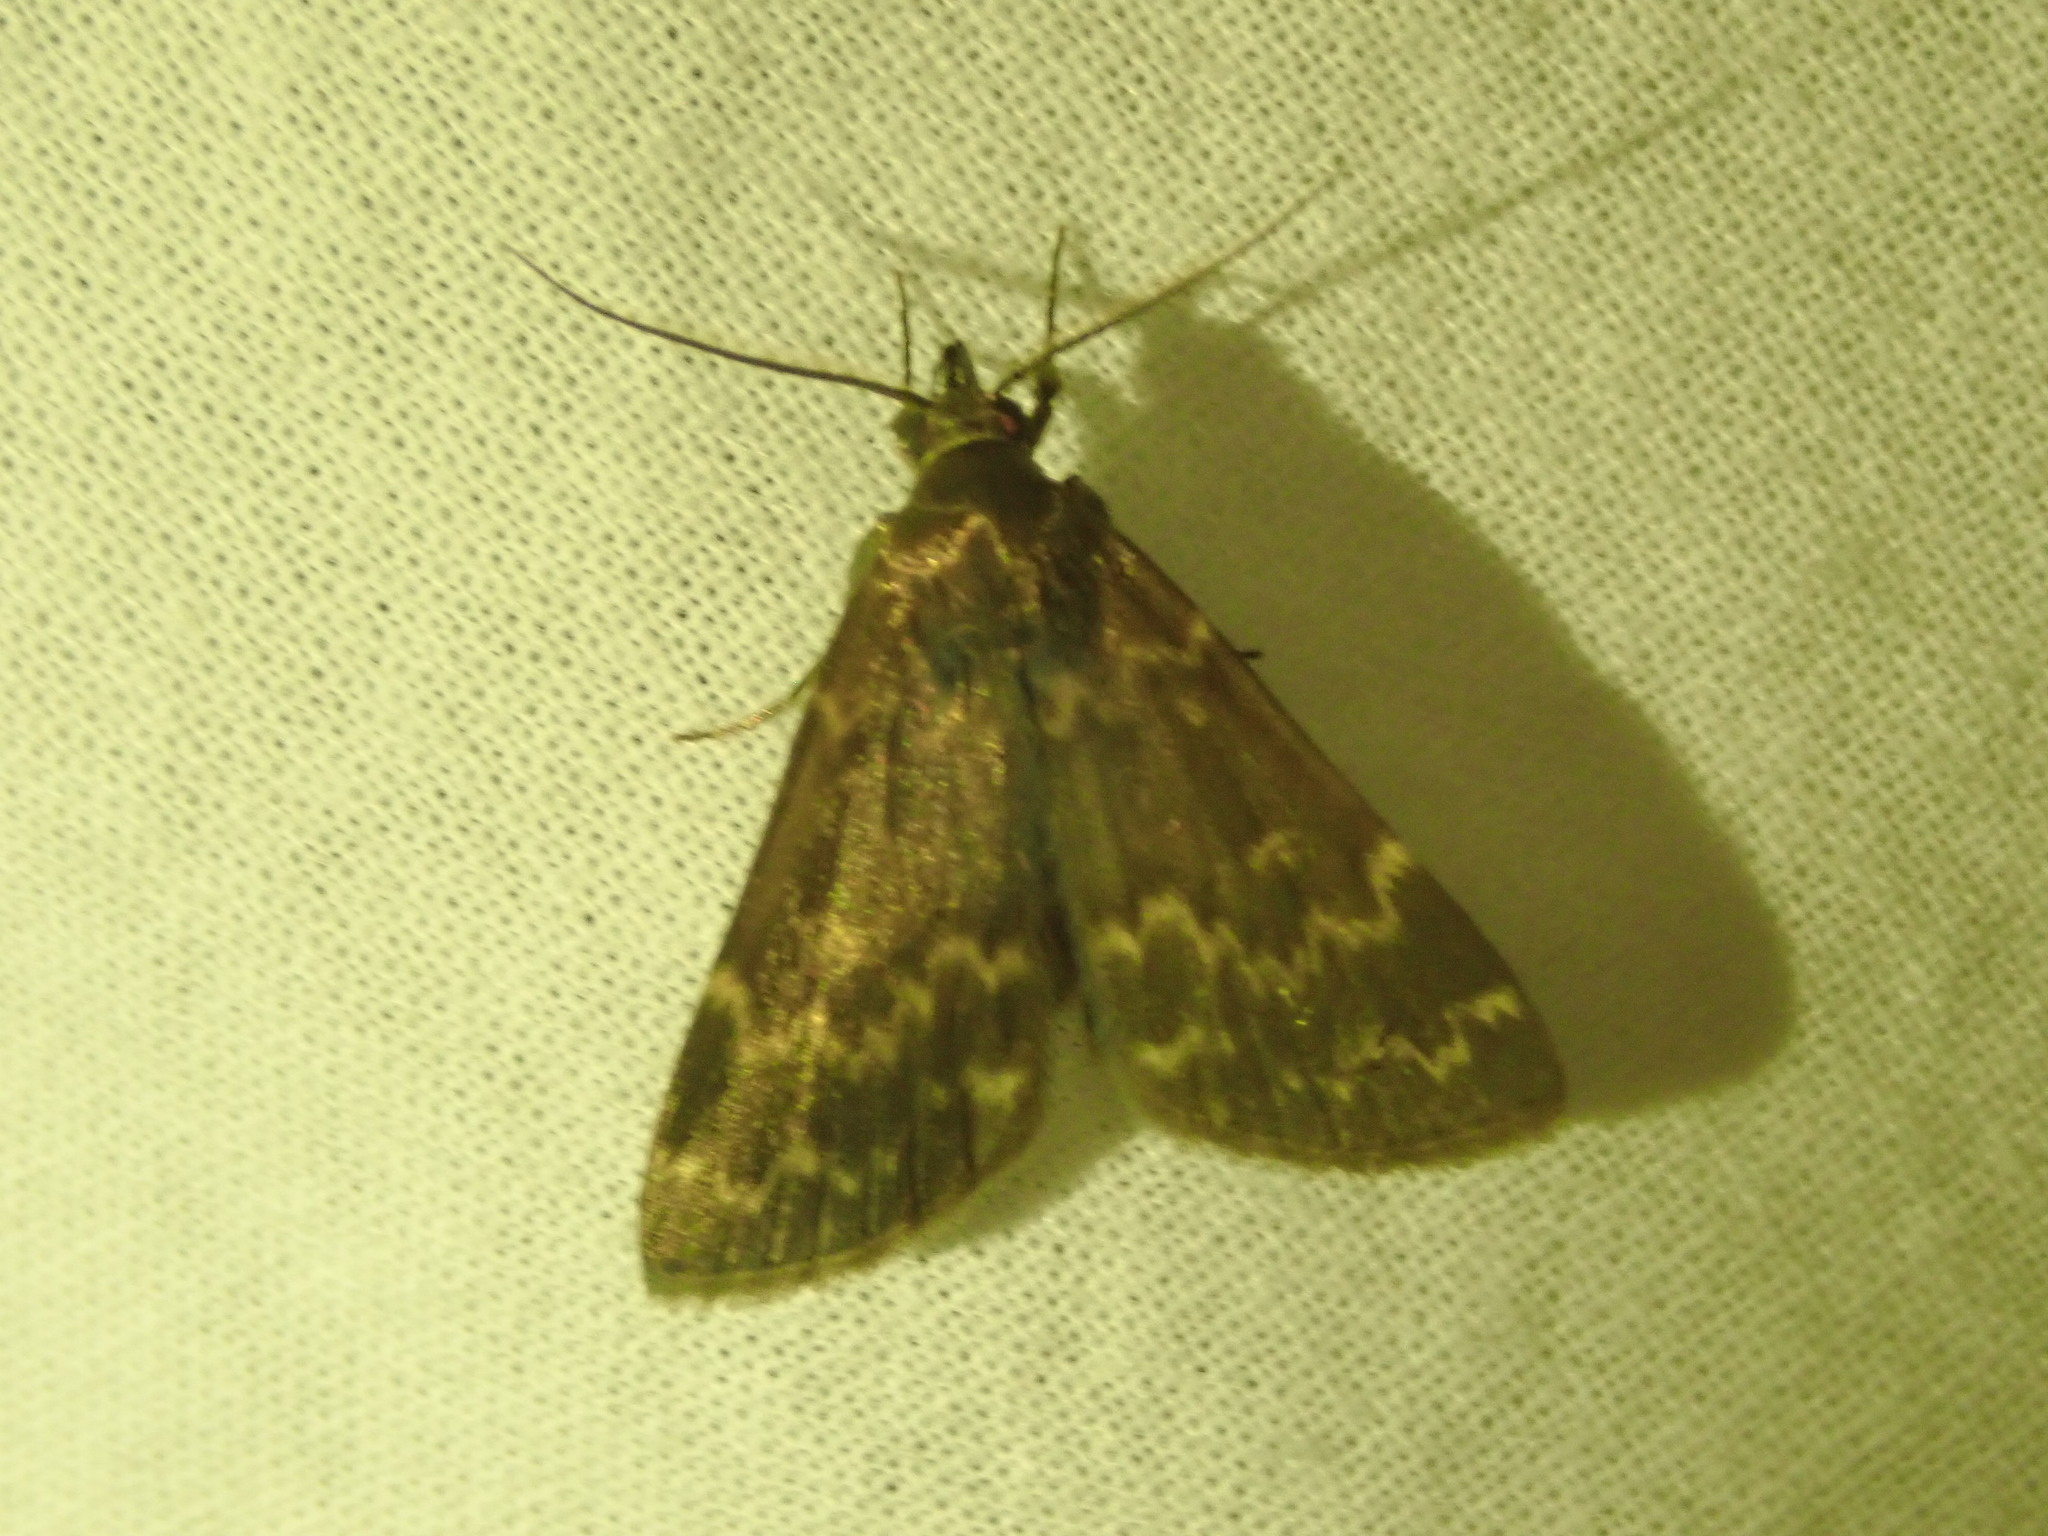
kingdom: Animalia
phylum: Arthropoda
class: Insecta
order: Lepidoptera
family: Erebidae
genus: Idia
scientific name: Idia lubricalis
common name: Twin-striped tabby
